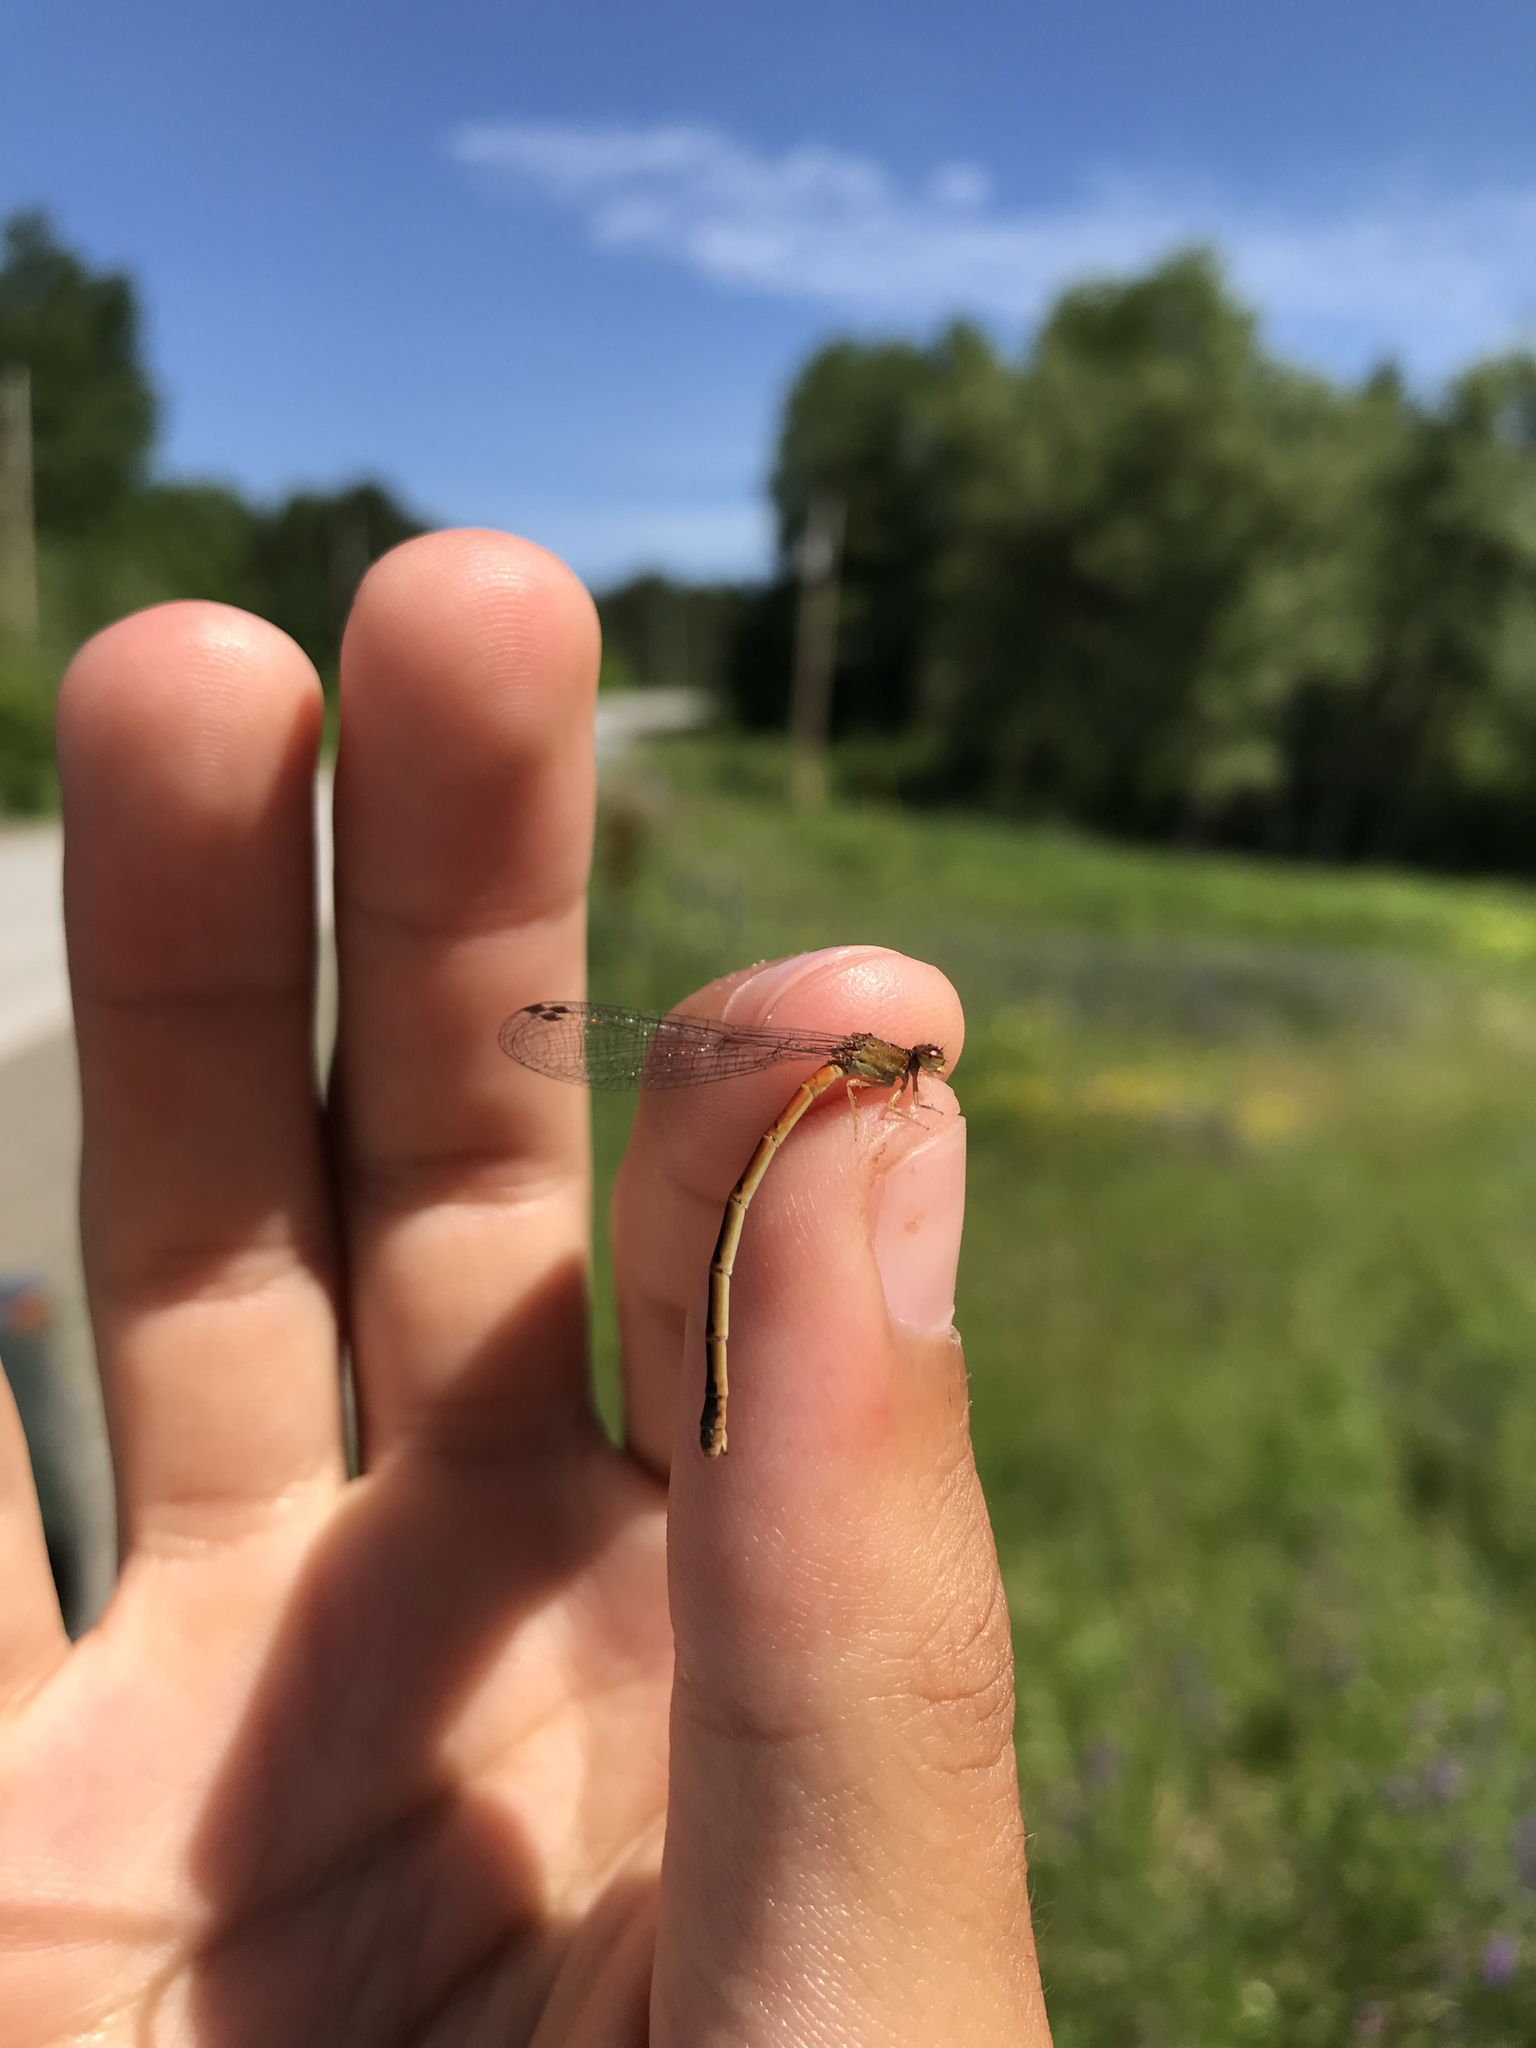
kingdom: Animalia
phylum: Arthropoda
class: Insecta
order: Odonata
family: Coenagrionidae
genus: Amphiagrion
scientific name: Amphiagrion saucium
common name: Eastern red damsel
